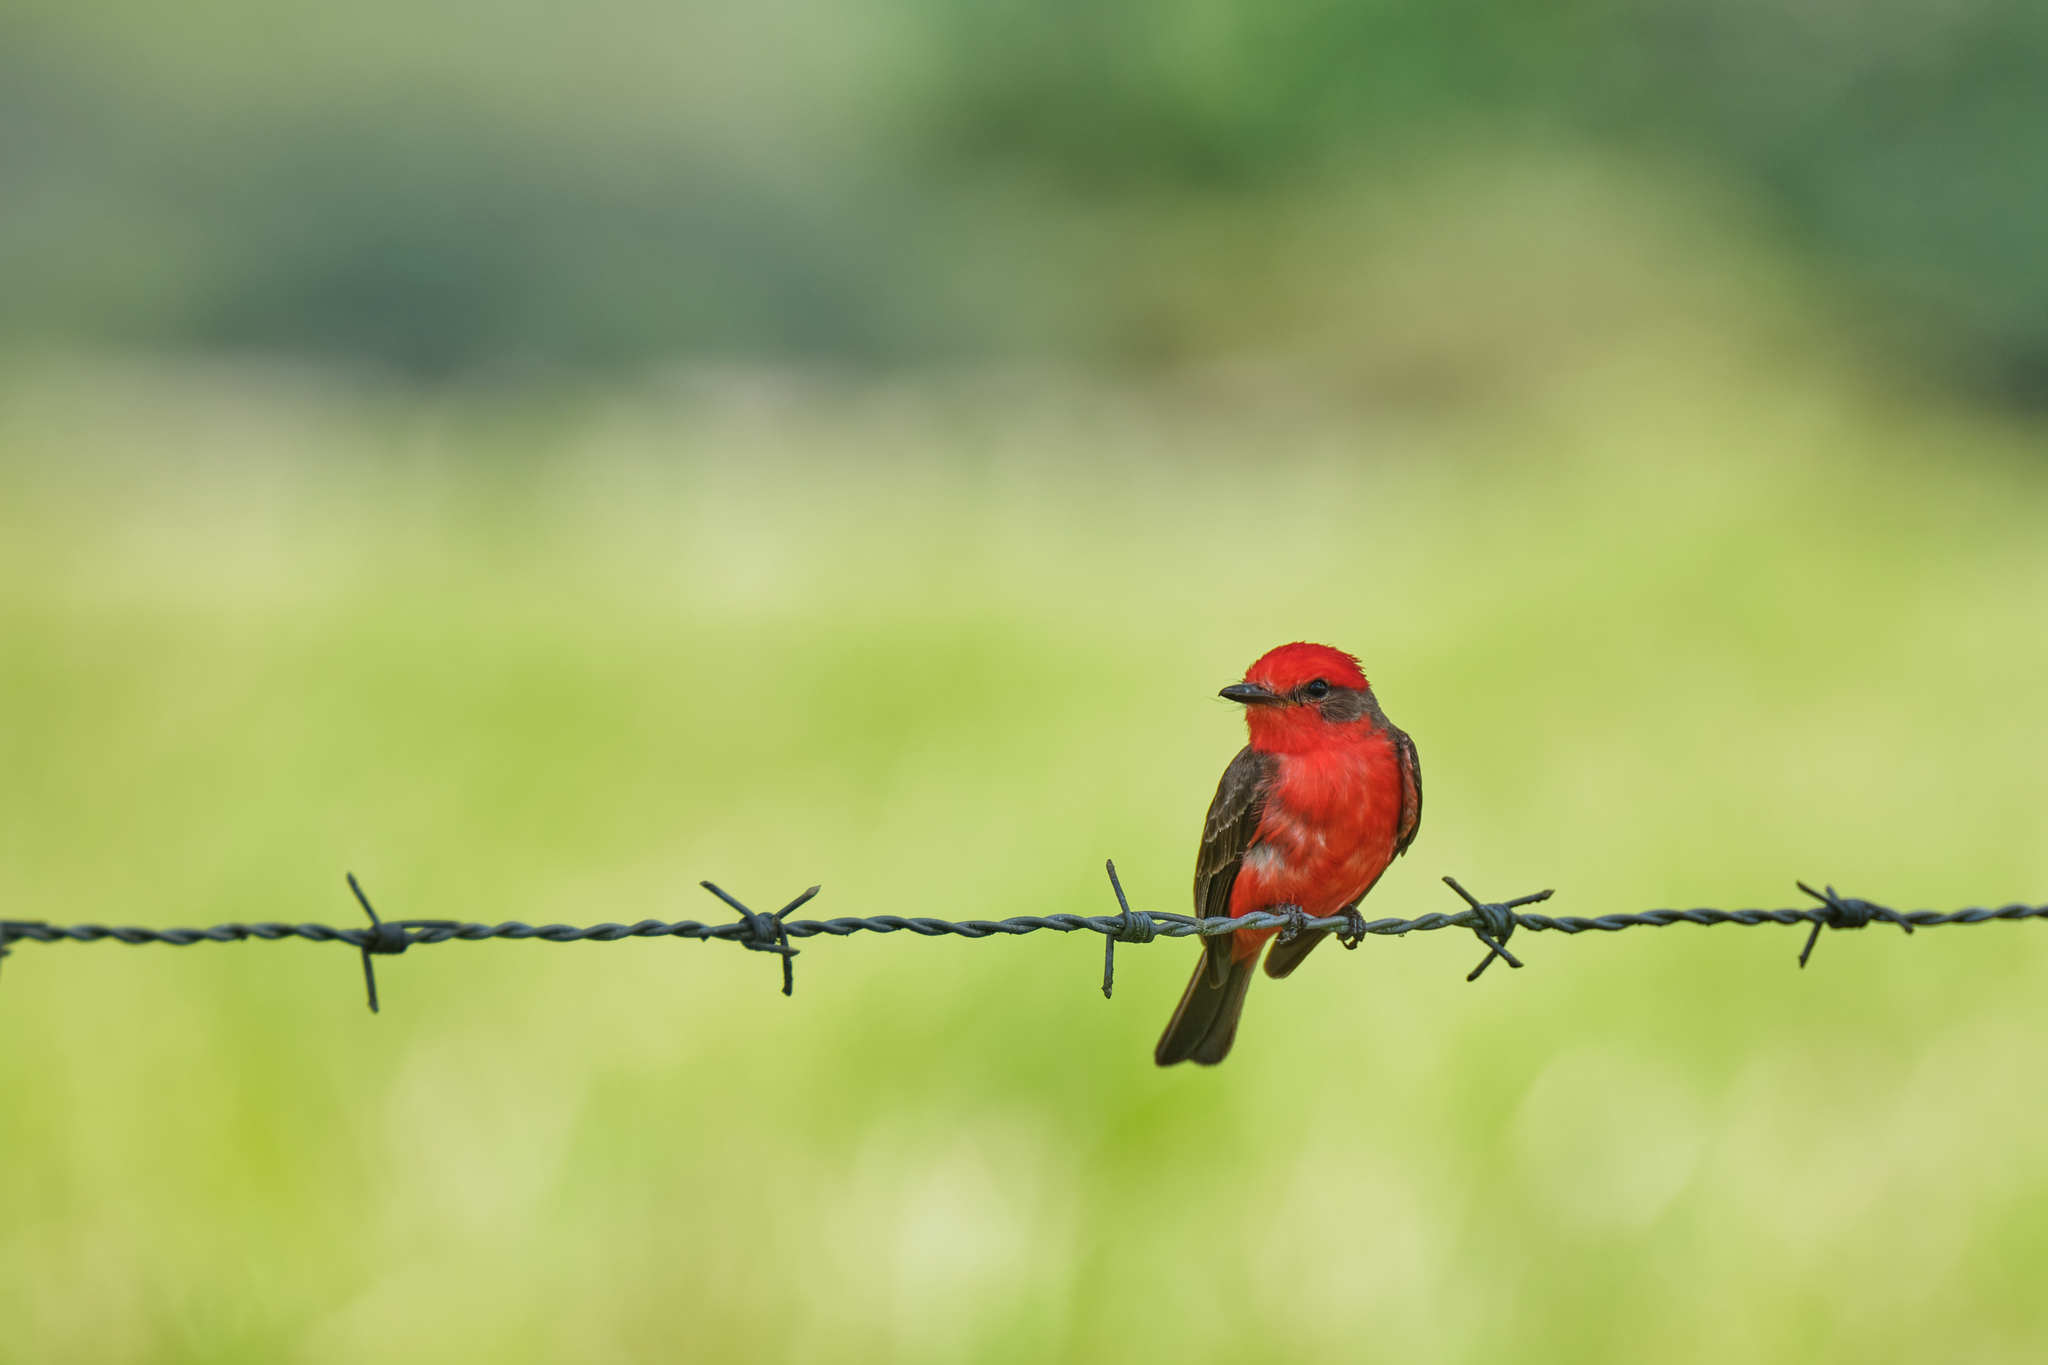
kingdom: Animalia
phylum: Chordata
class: Aves
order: Passeriformes
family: Tyrannidae
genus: Pyrocephalus
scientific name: Pyrocephalus rubinus
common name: Vermilion flycatcher
